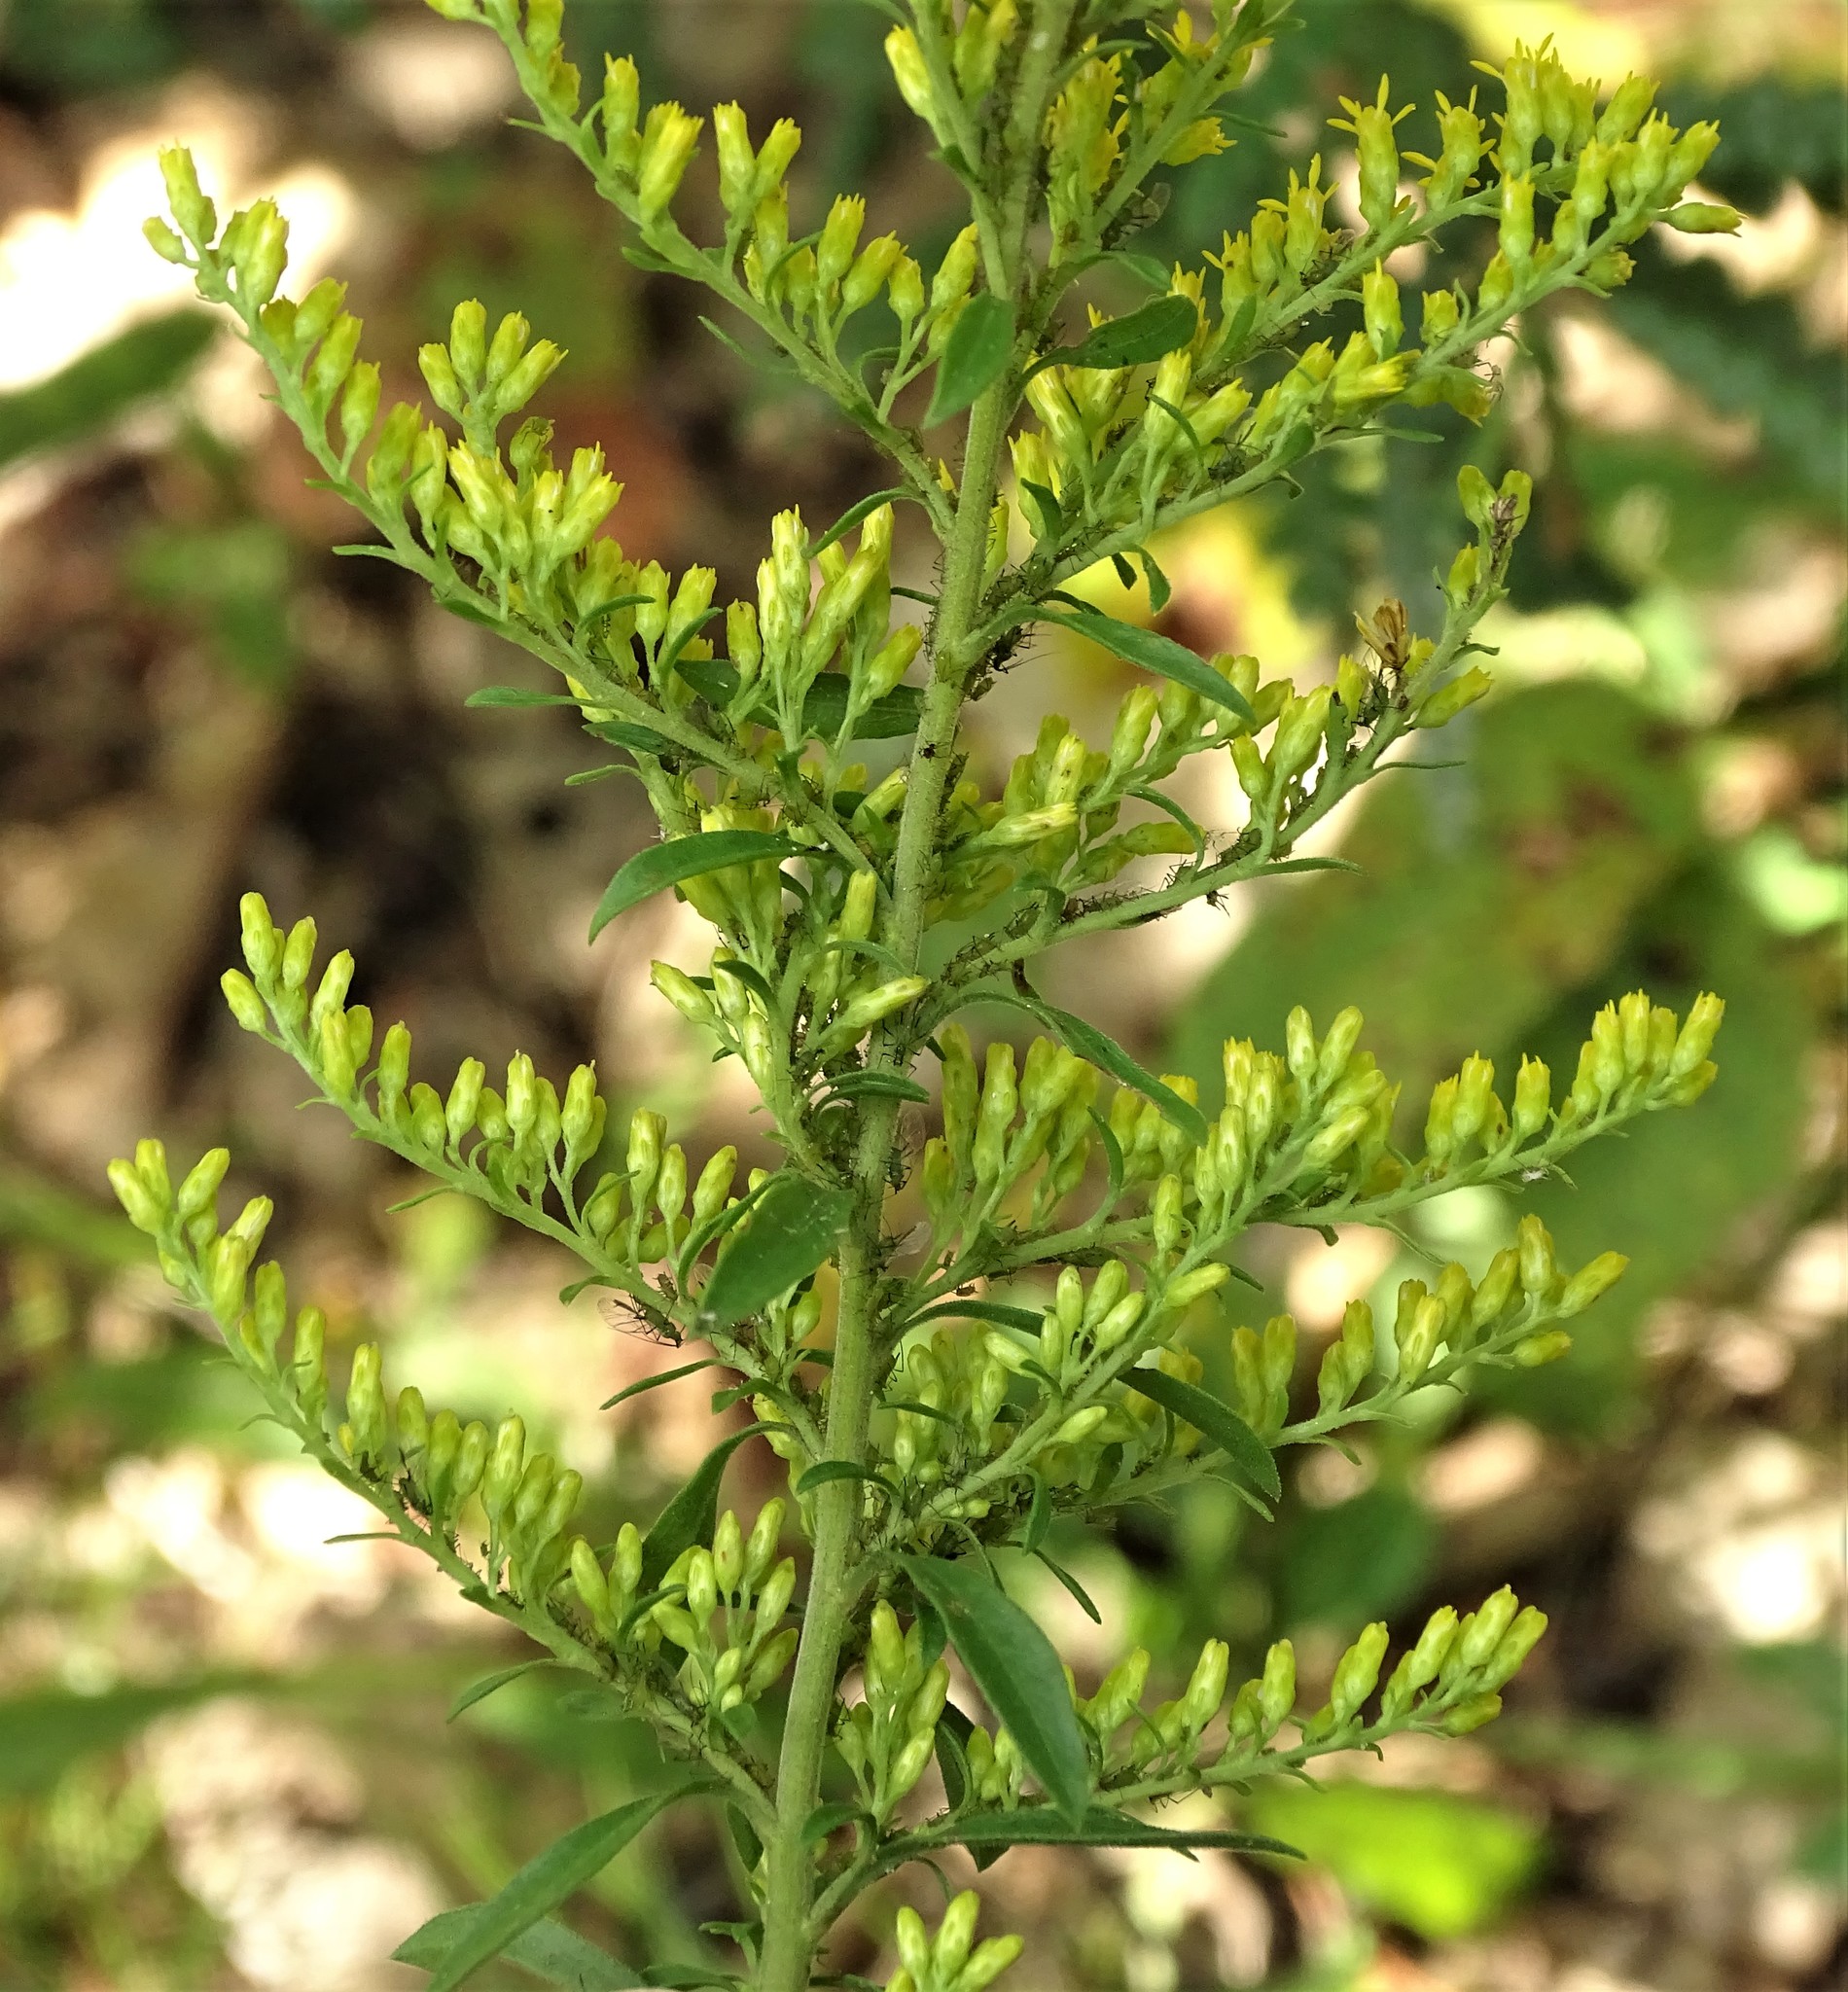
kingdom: Plantae
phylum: Tracheophyta
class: Magnoliopsida
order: Asterales
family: Asteraceae
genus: Solidago
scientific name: Solidago nemoralis
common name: Grey goldenrod
